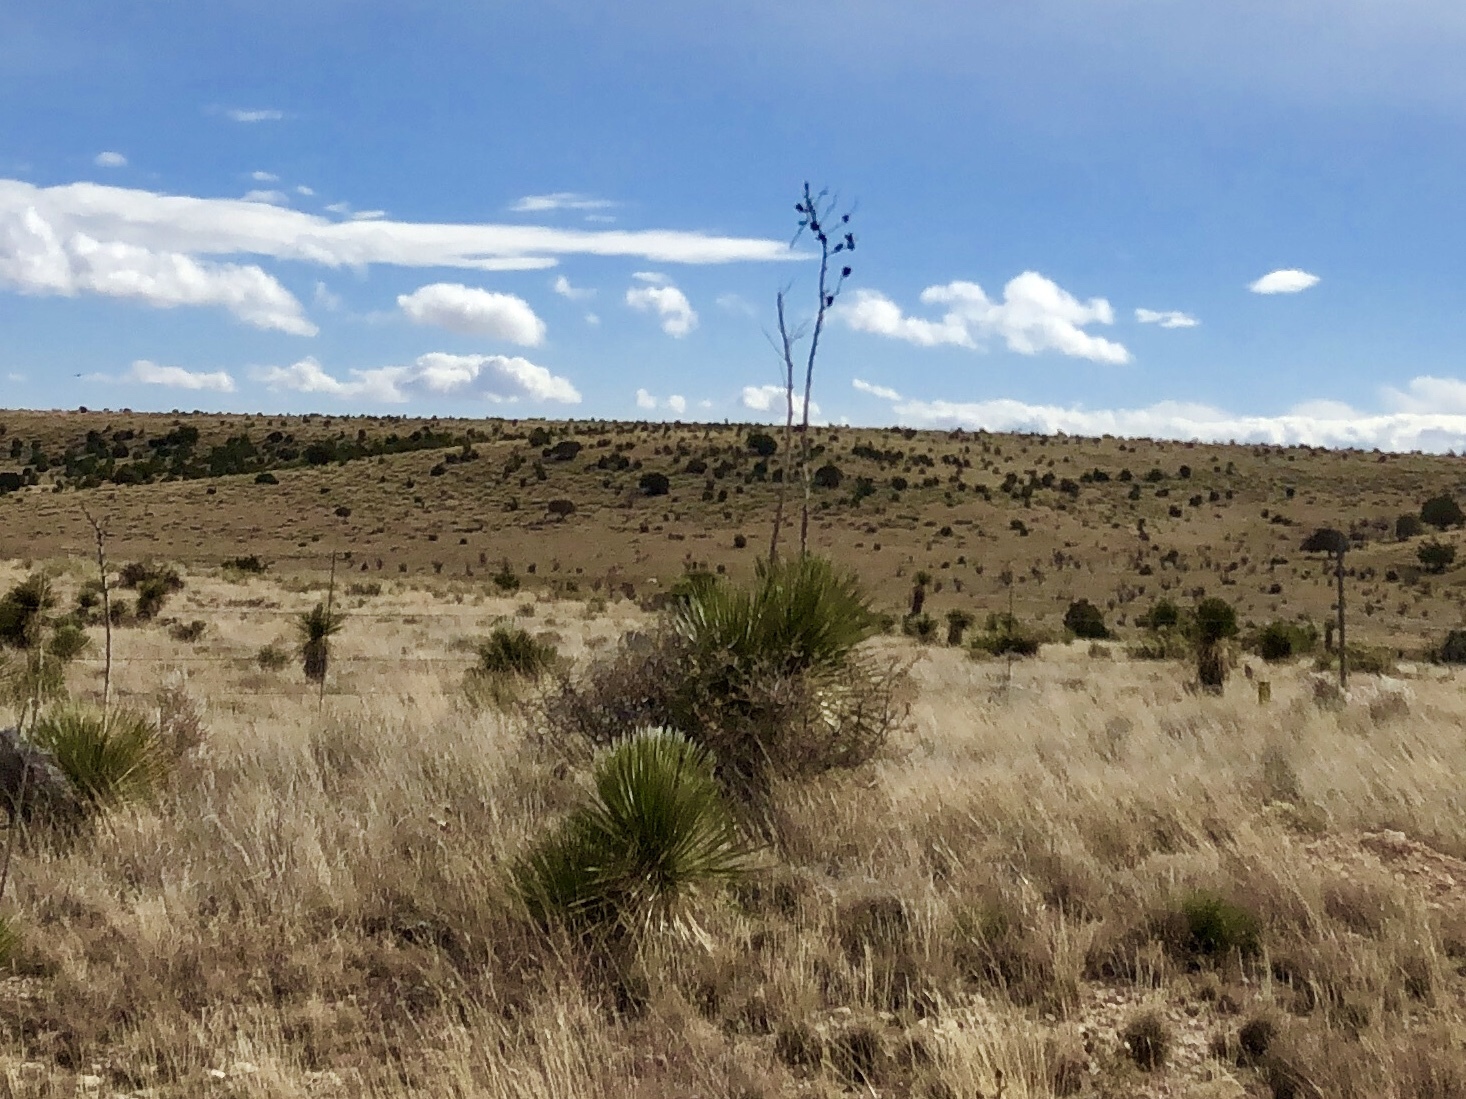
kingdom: Plantae
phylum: Tracheophyta
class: Liliopsida
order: Asparagales
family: Asparagaceae
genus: Yucca
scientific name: Yucca elata
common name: Palmella
